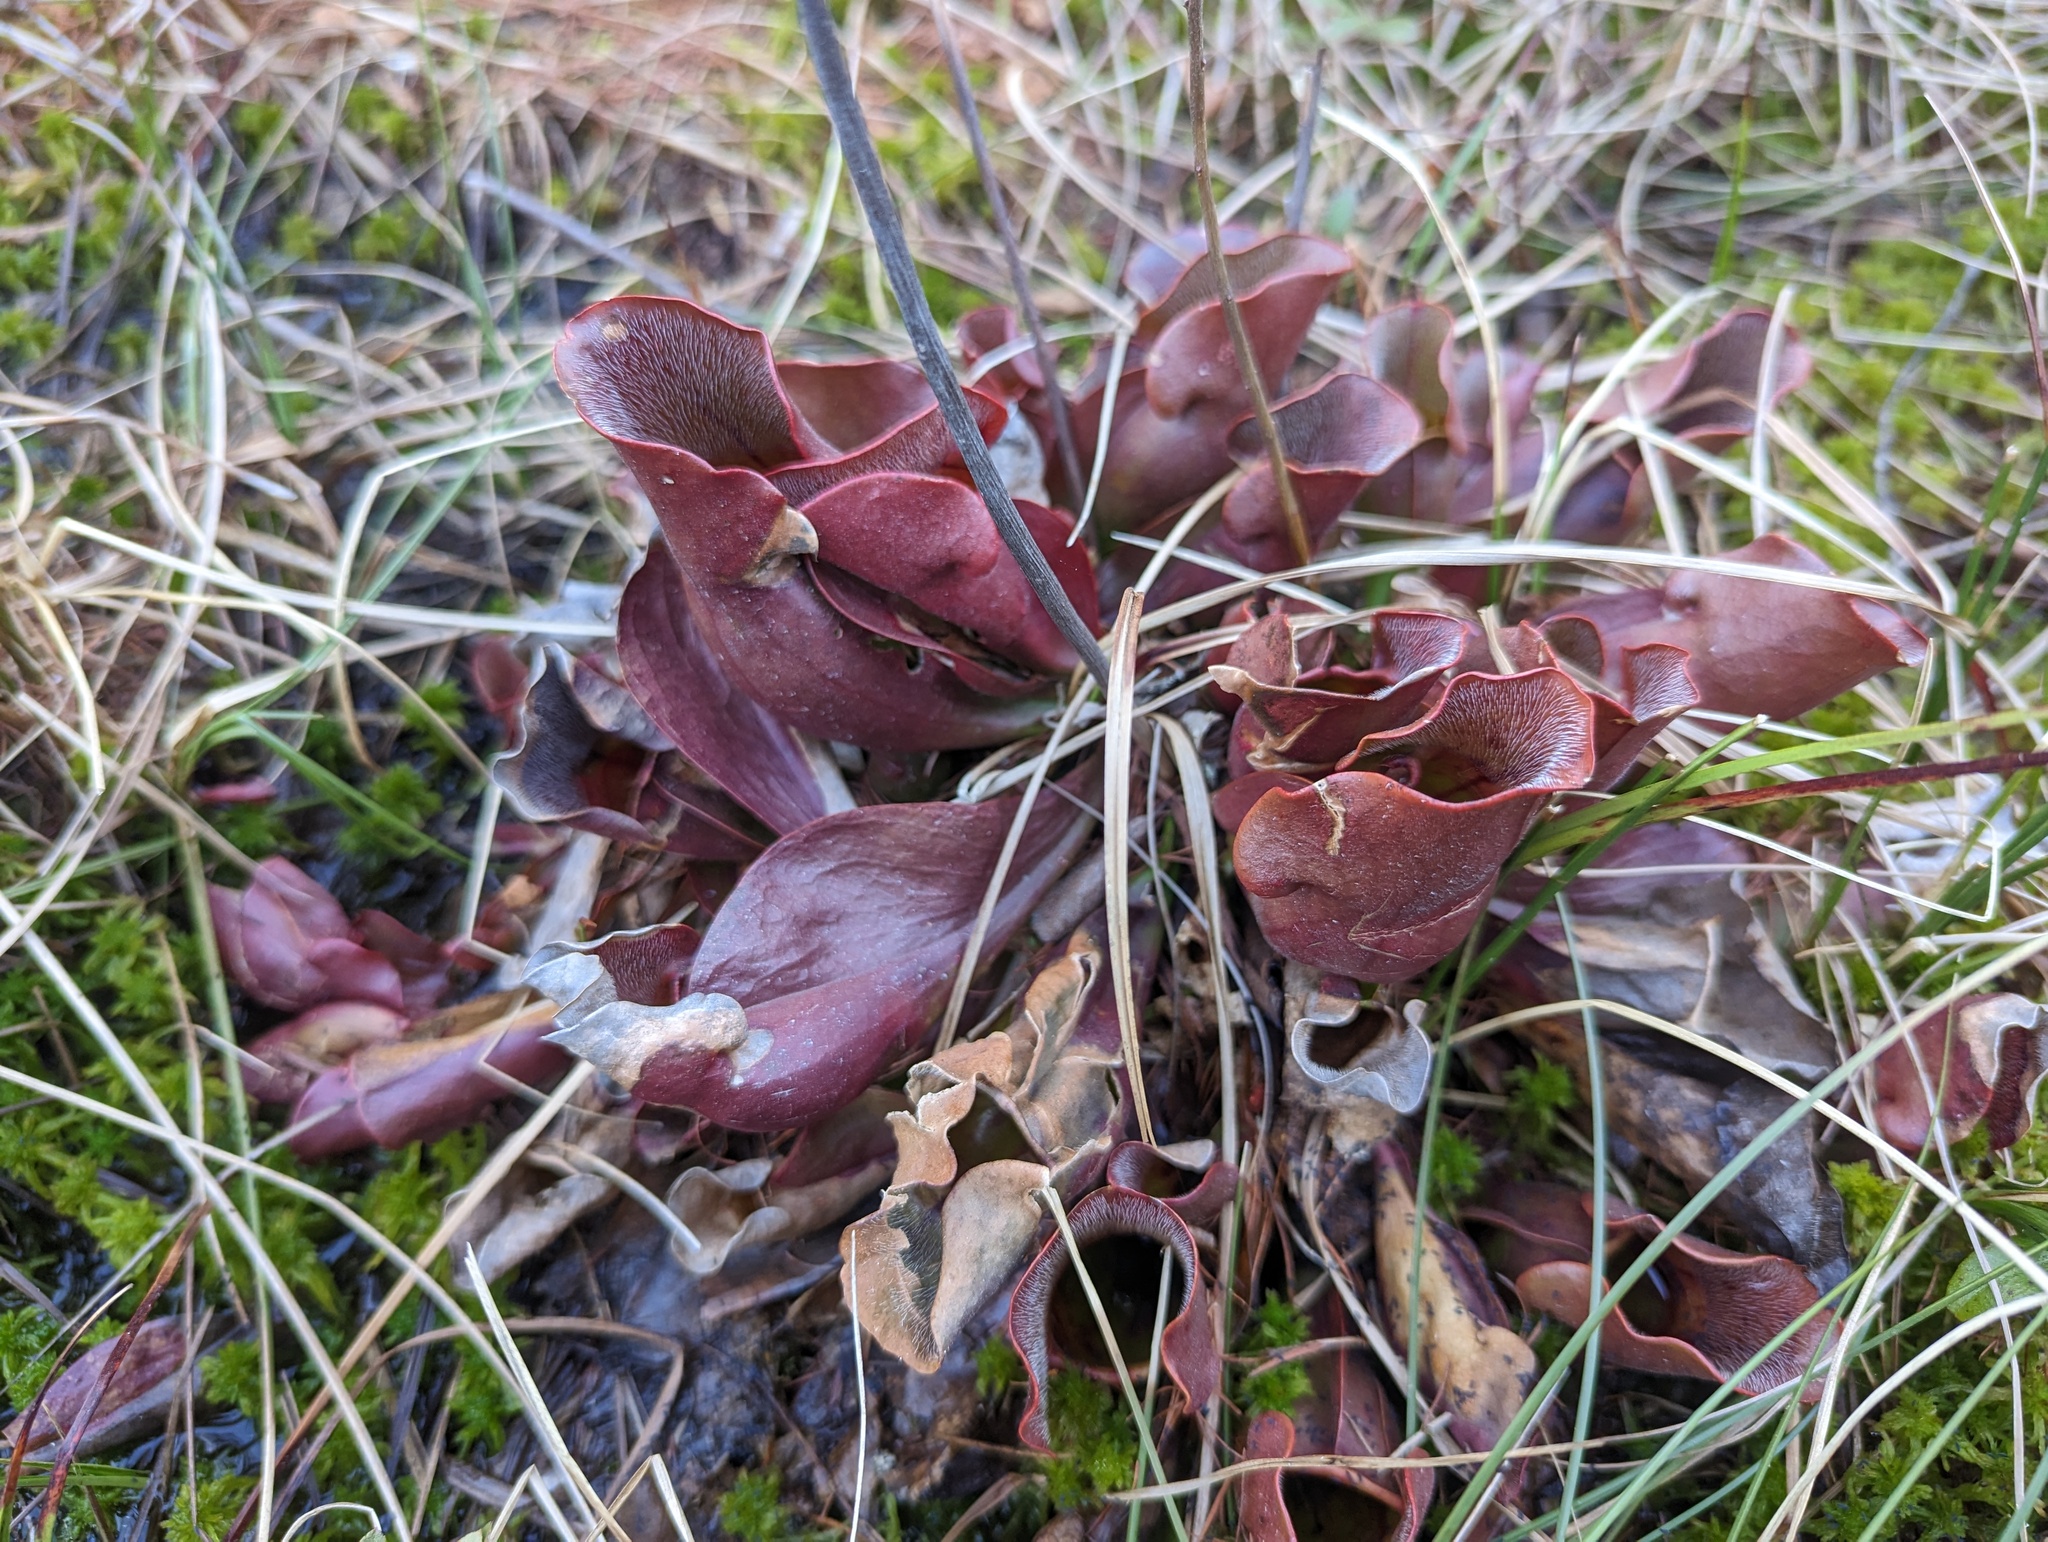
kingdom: Plantae
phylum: Tracheophyta
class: Magnoliopsida
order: Ericales
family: Sarraceniaceae
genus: Sarracenia
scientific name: Sarracenia purpurea
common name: Pitcherplant
